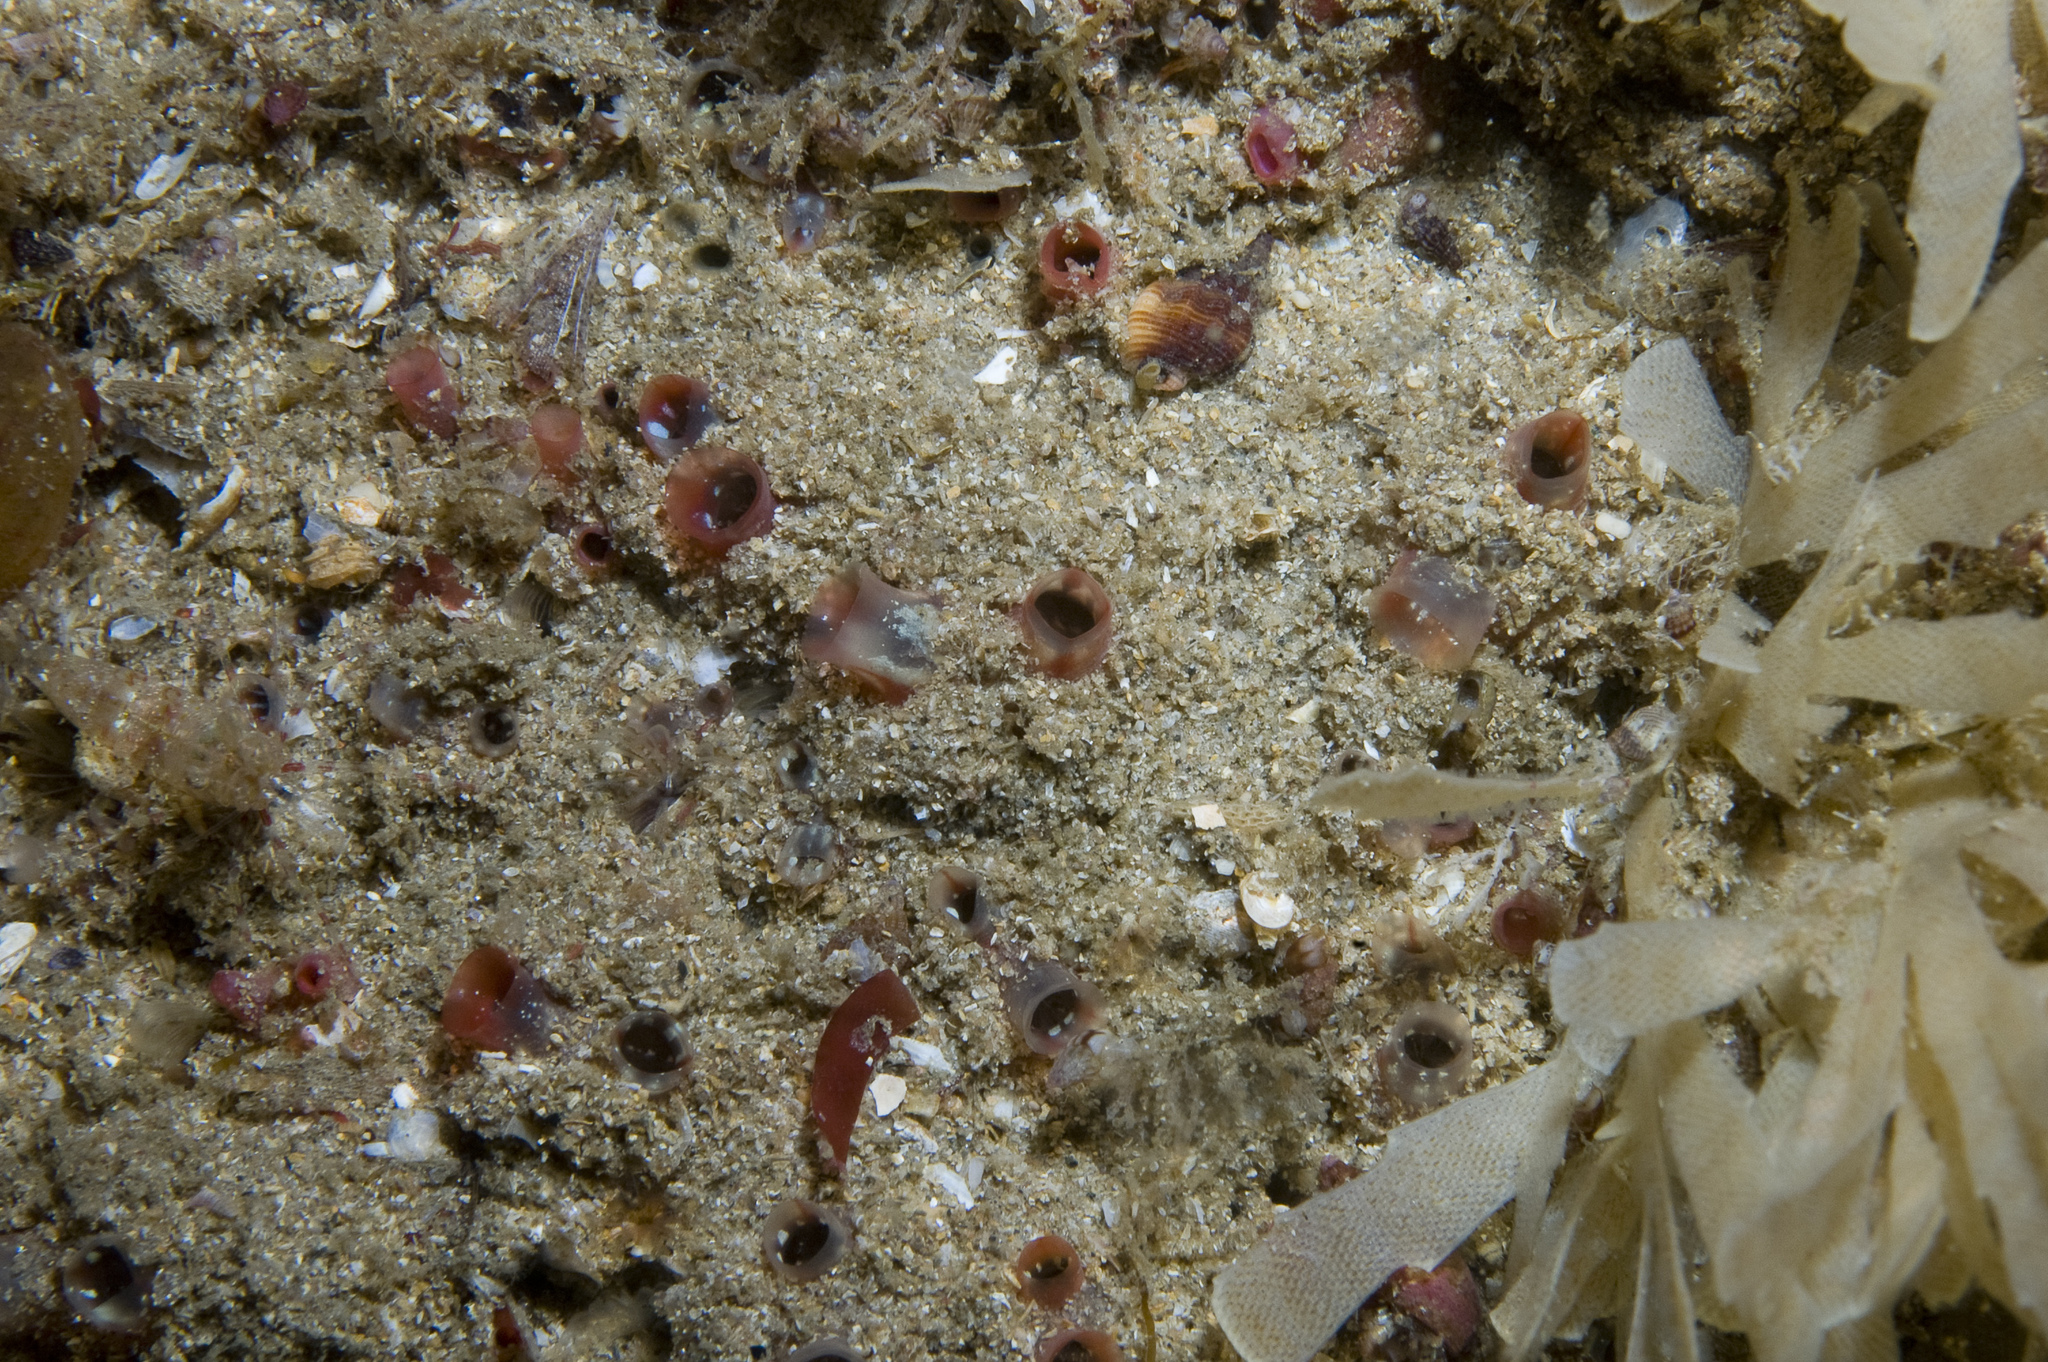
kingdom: Animalia
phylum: Chordata
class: Ascidiacea
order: Stolidobranchia
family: Styelidae
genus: Polycarpa
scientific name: Polycarpa fibrosa
